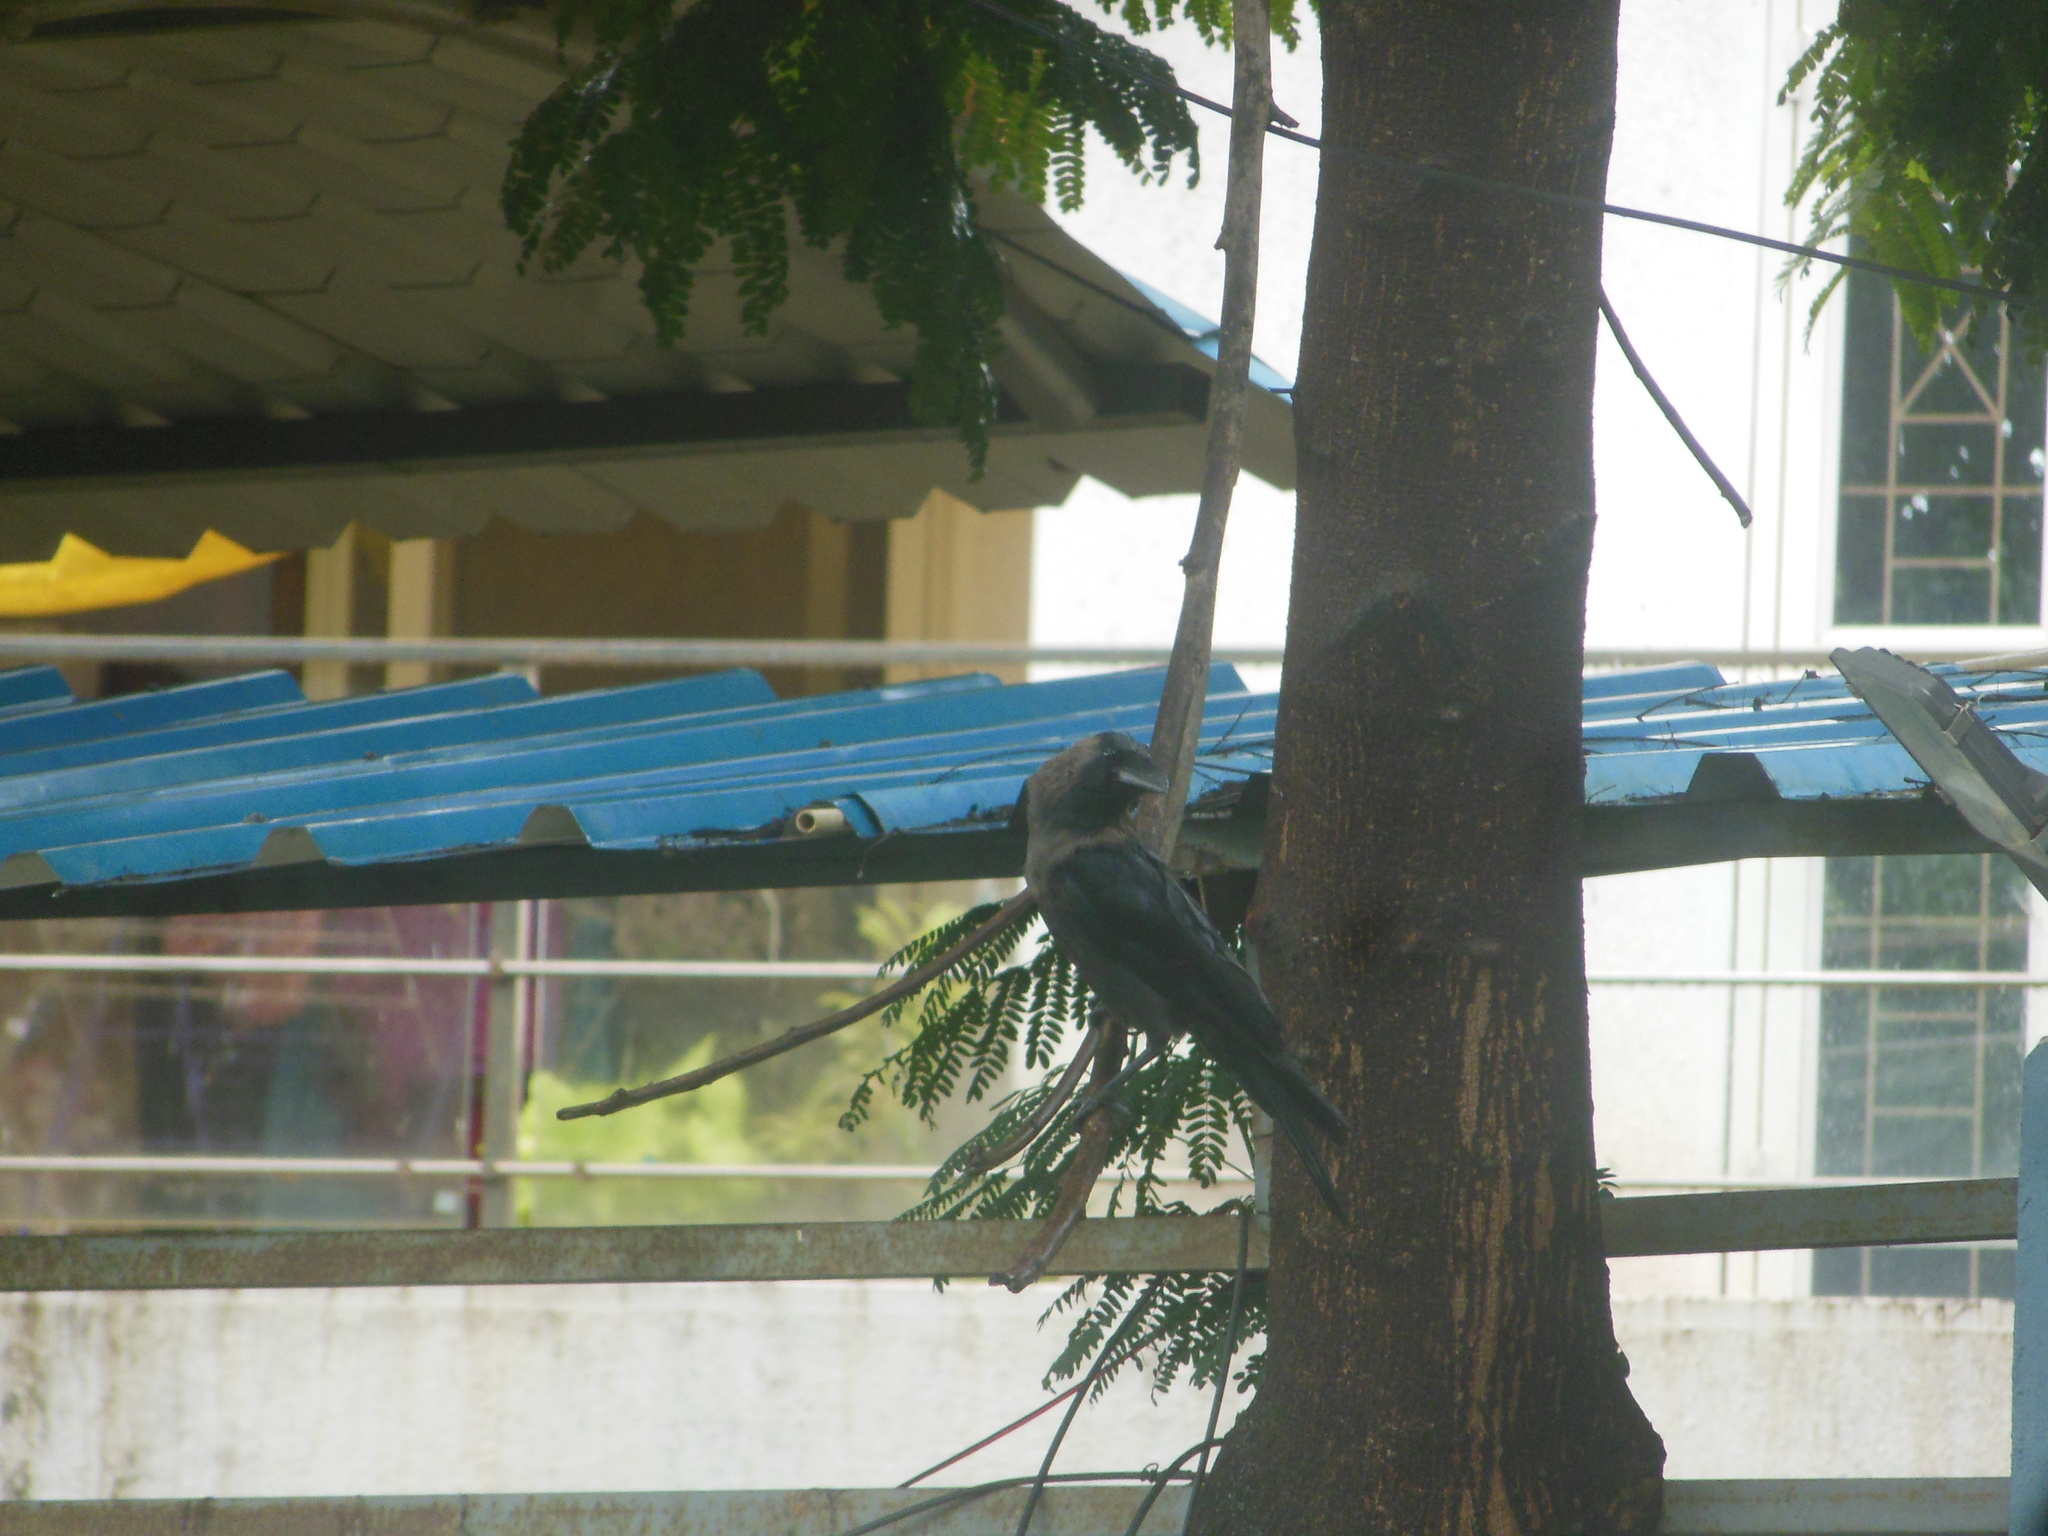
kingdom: Animalia
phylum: Chordata
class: Aves
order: Passeriformes
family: Corvidae
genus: Corvus
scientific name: Corvus splendens
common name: House crow
